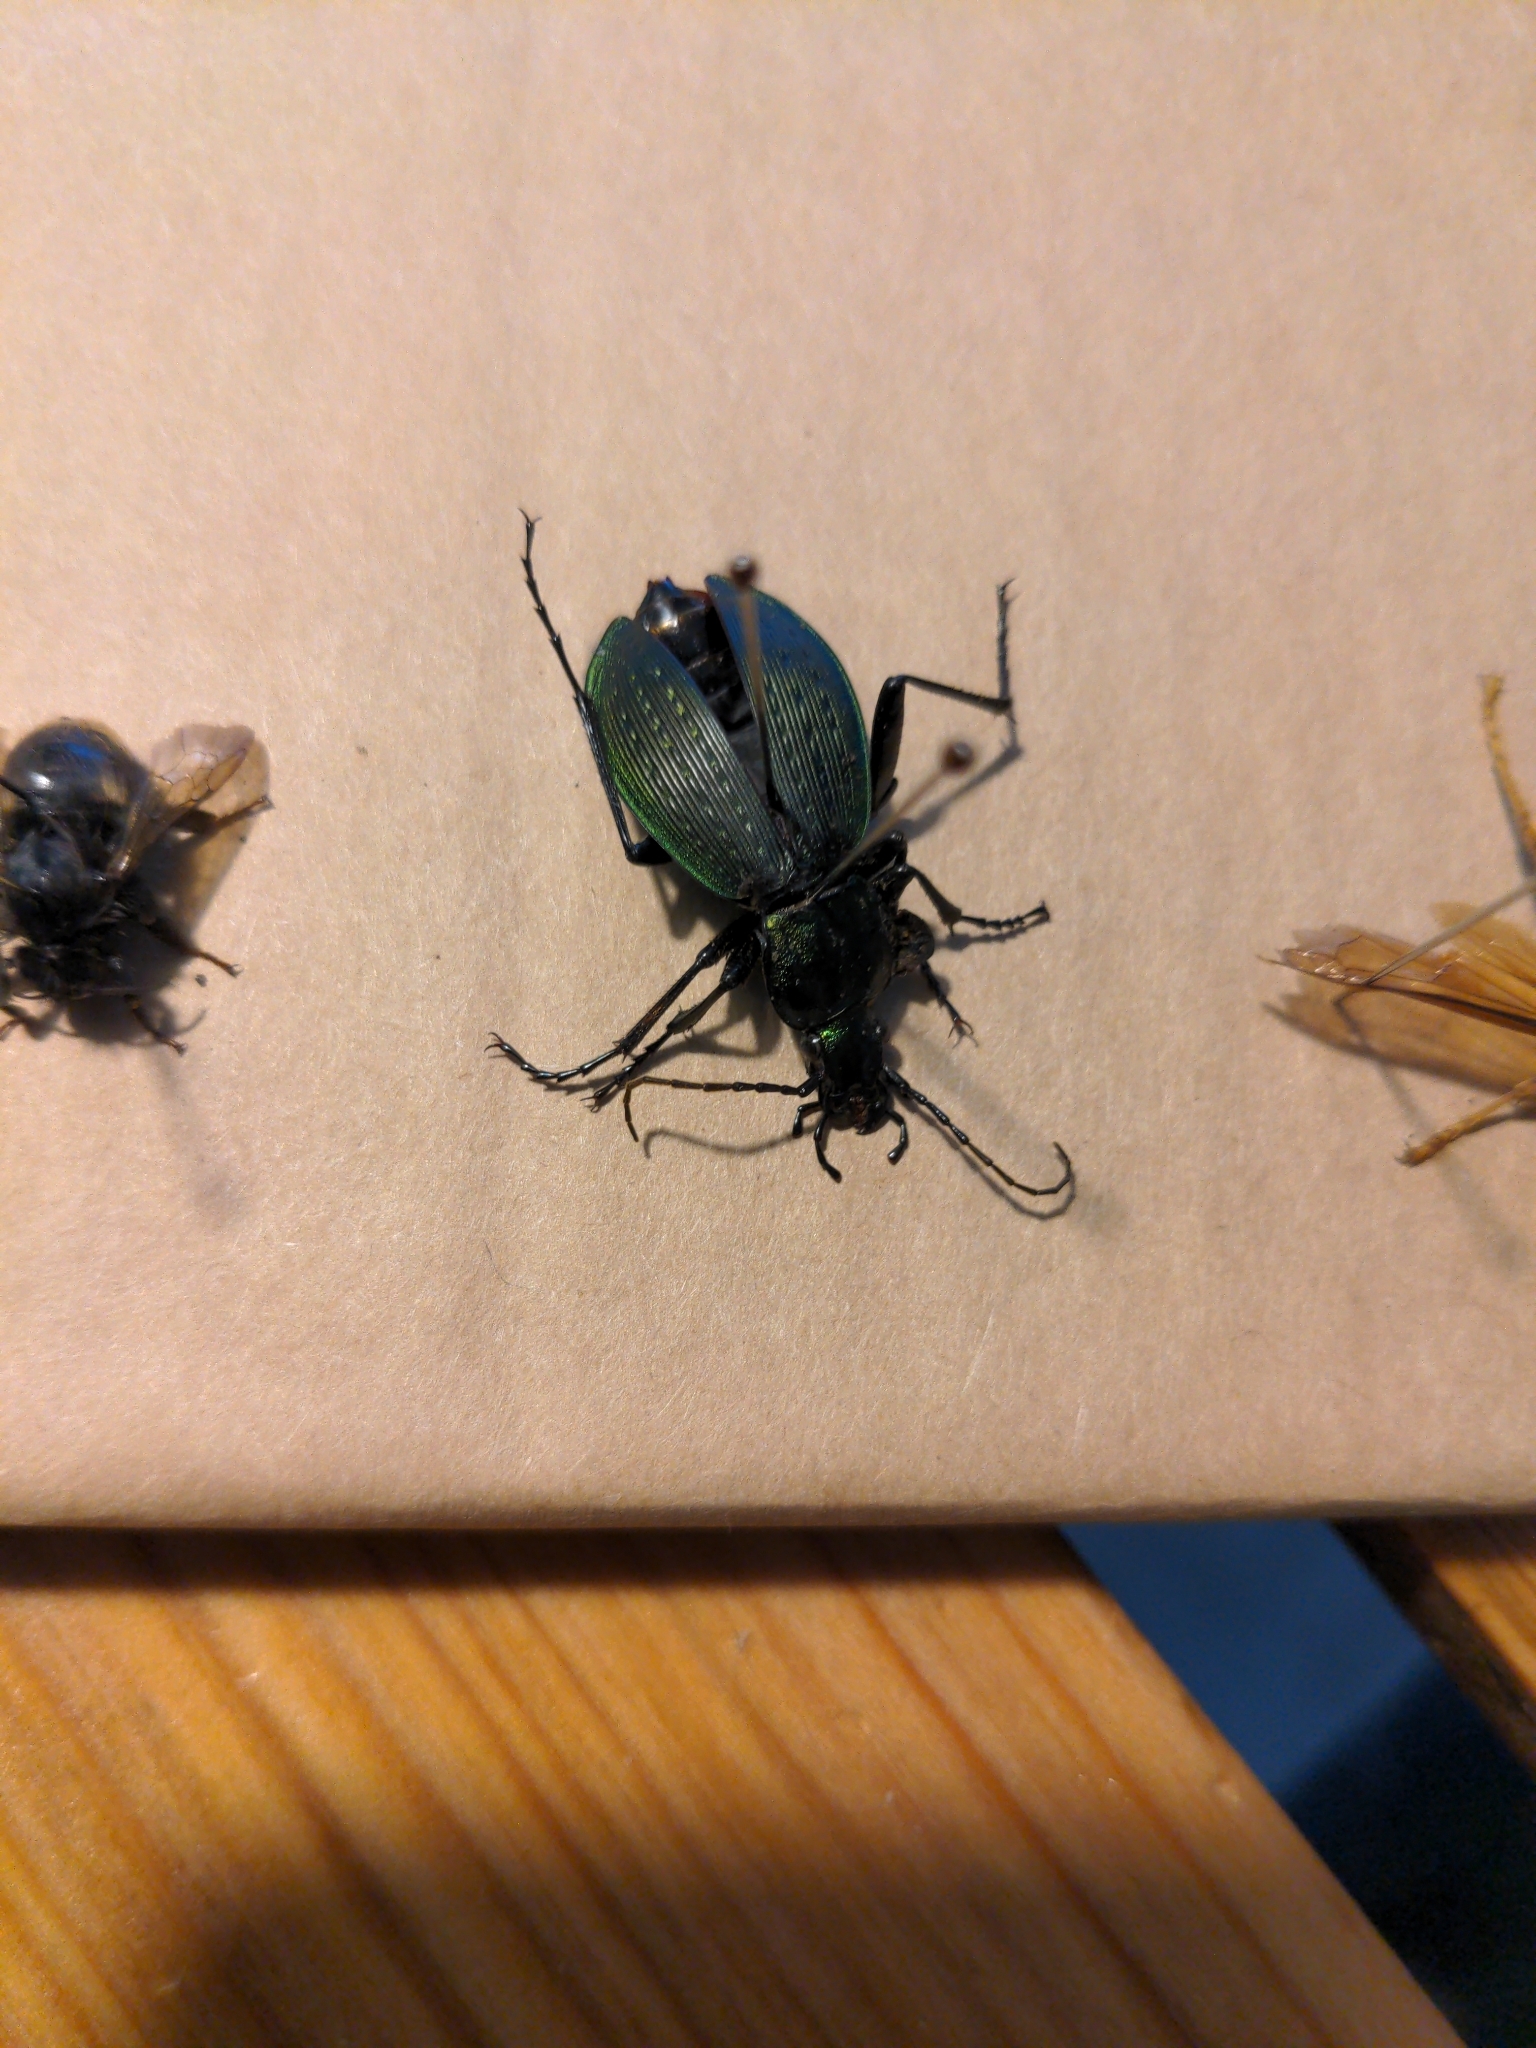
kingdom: Animalia
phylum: Arthropoda
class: Insecta
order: Coleoptera
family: Carabidae
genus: Carabus
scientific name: Carabus insulicola
